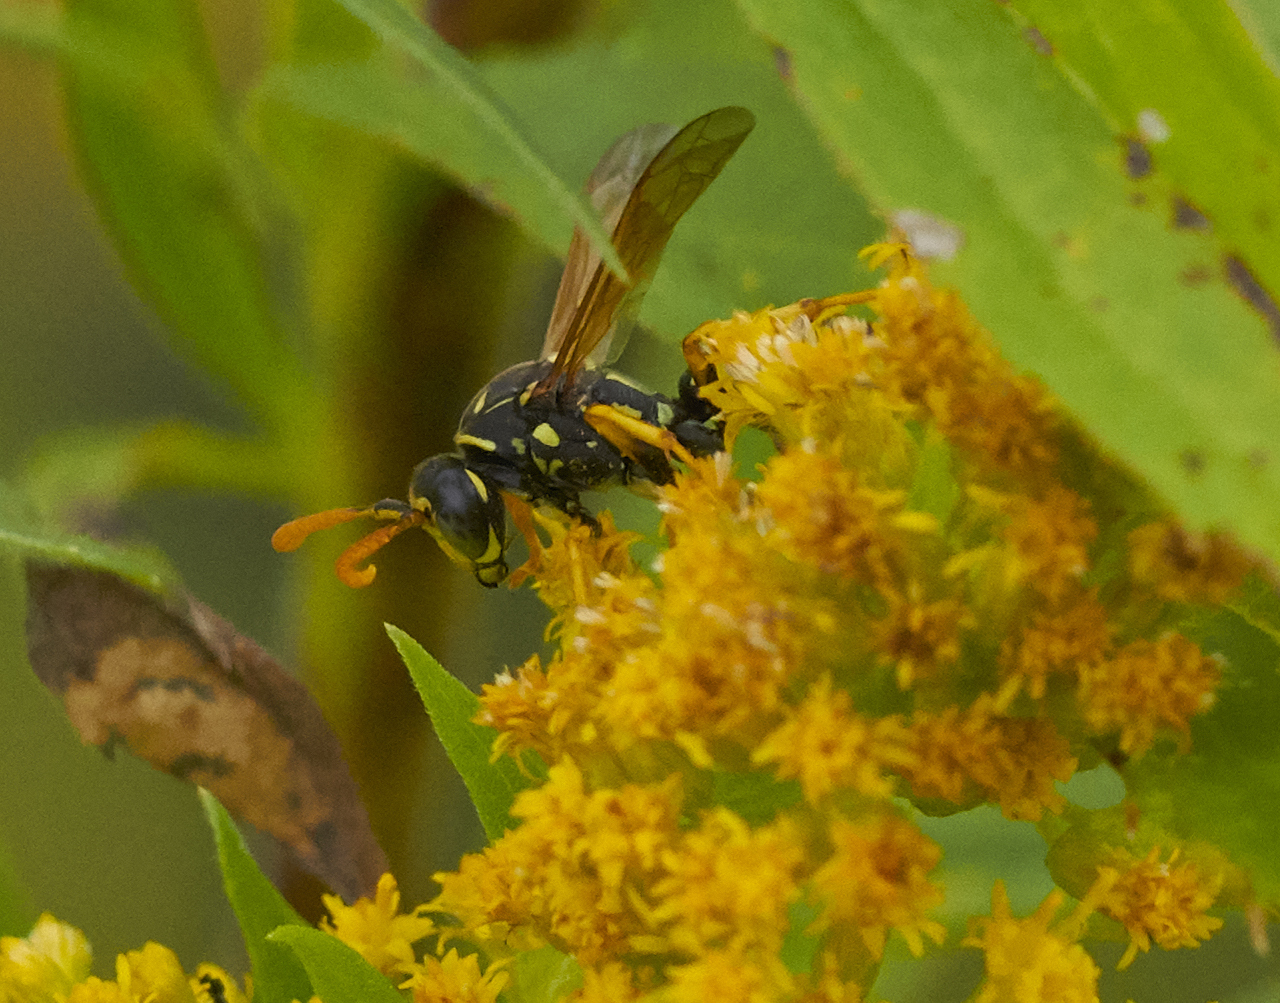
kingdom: Animalia
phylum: Arthropoda
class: Insecta
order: Hymenoptera
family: Eumenidae
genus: Polistes
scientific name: Polistes dominula
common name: Paper wasp
